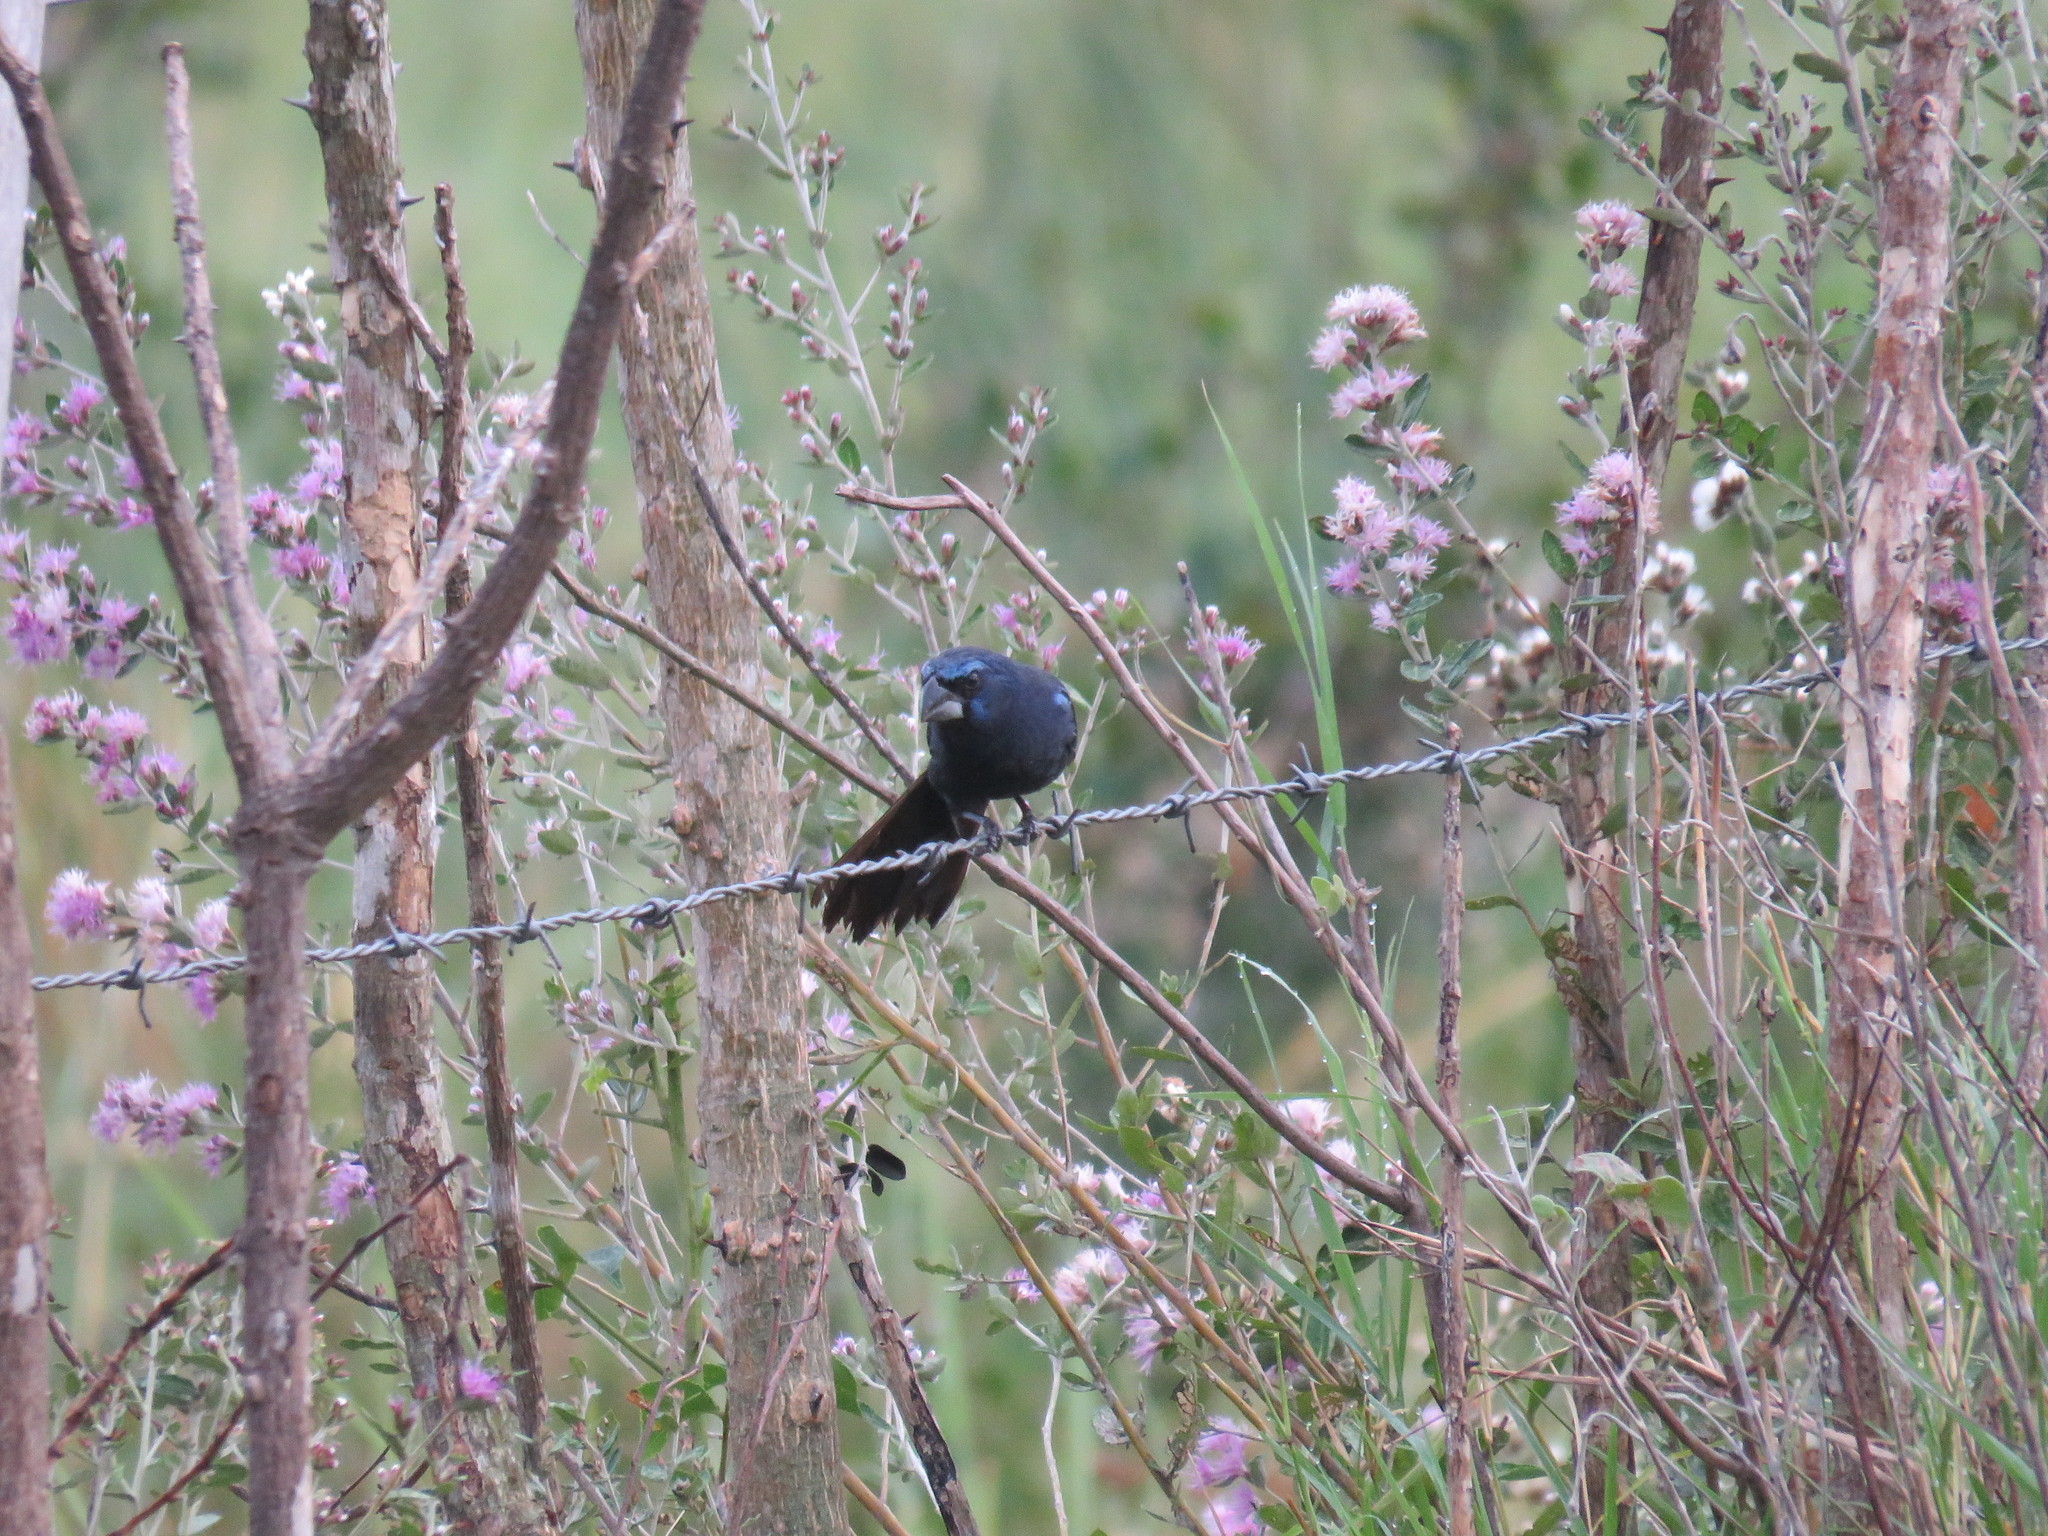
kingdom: Animalia
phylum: Chordata
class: Aves
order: Passeriformes
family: Cardinalidae
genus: Cyanoloxia
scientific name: Cyanoloxia brissonii
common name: Ultramarine grosbeak
